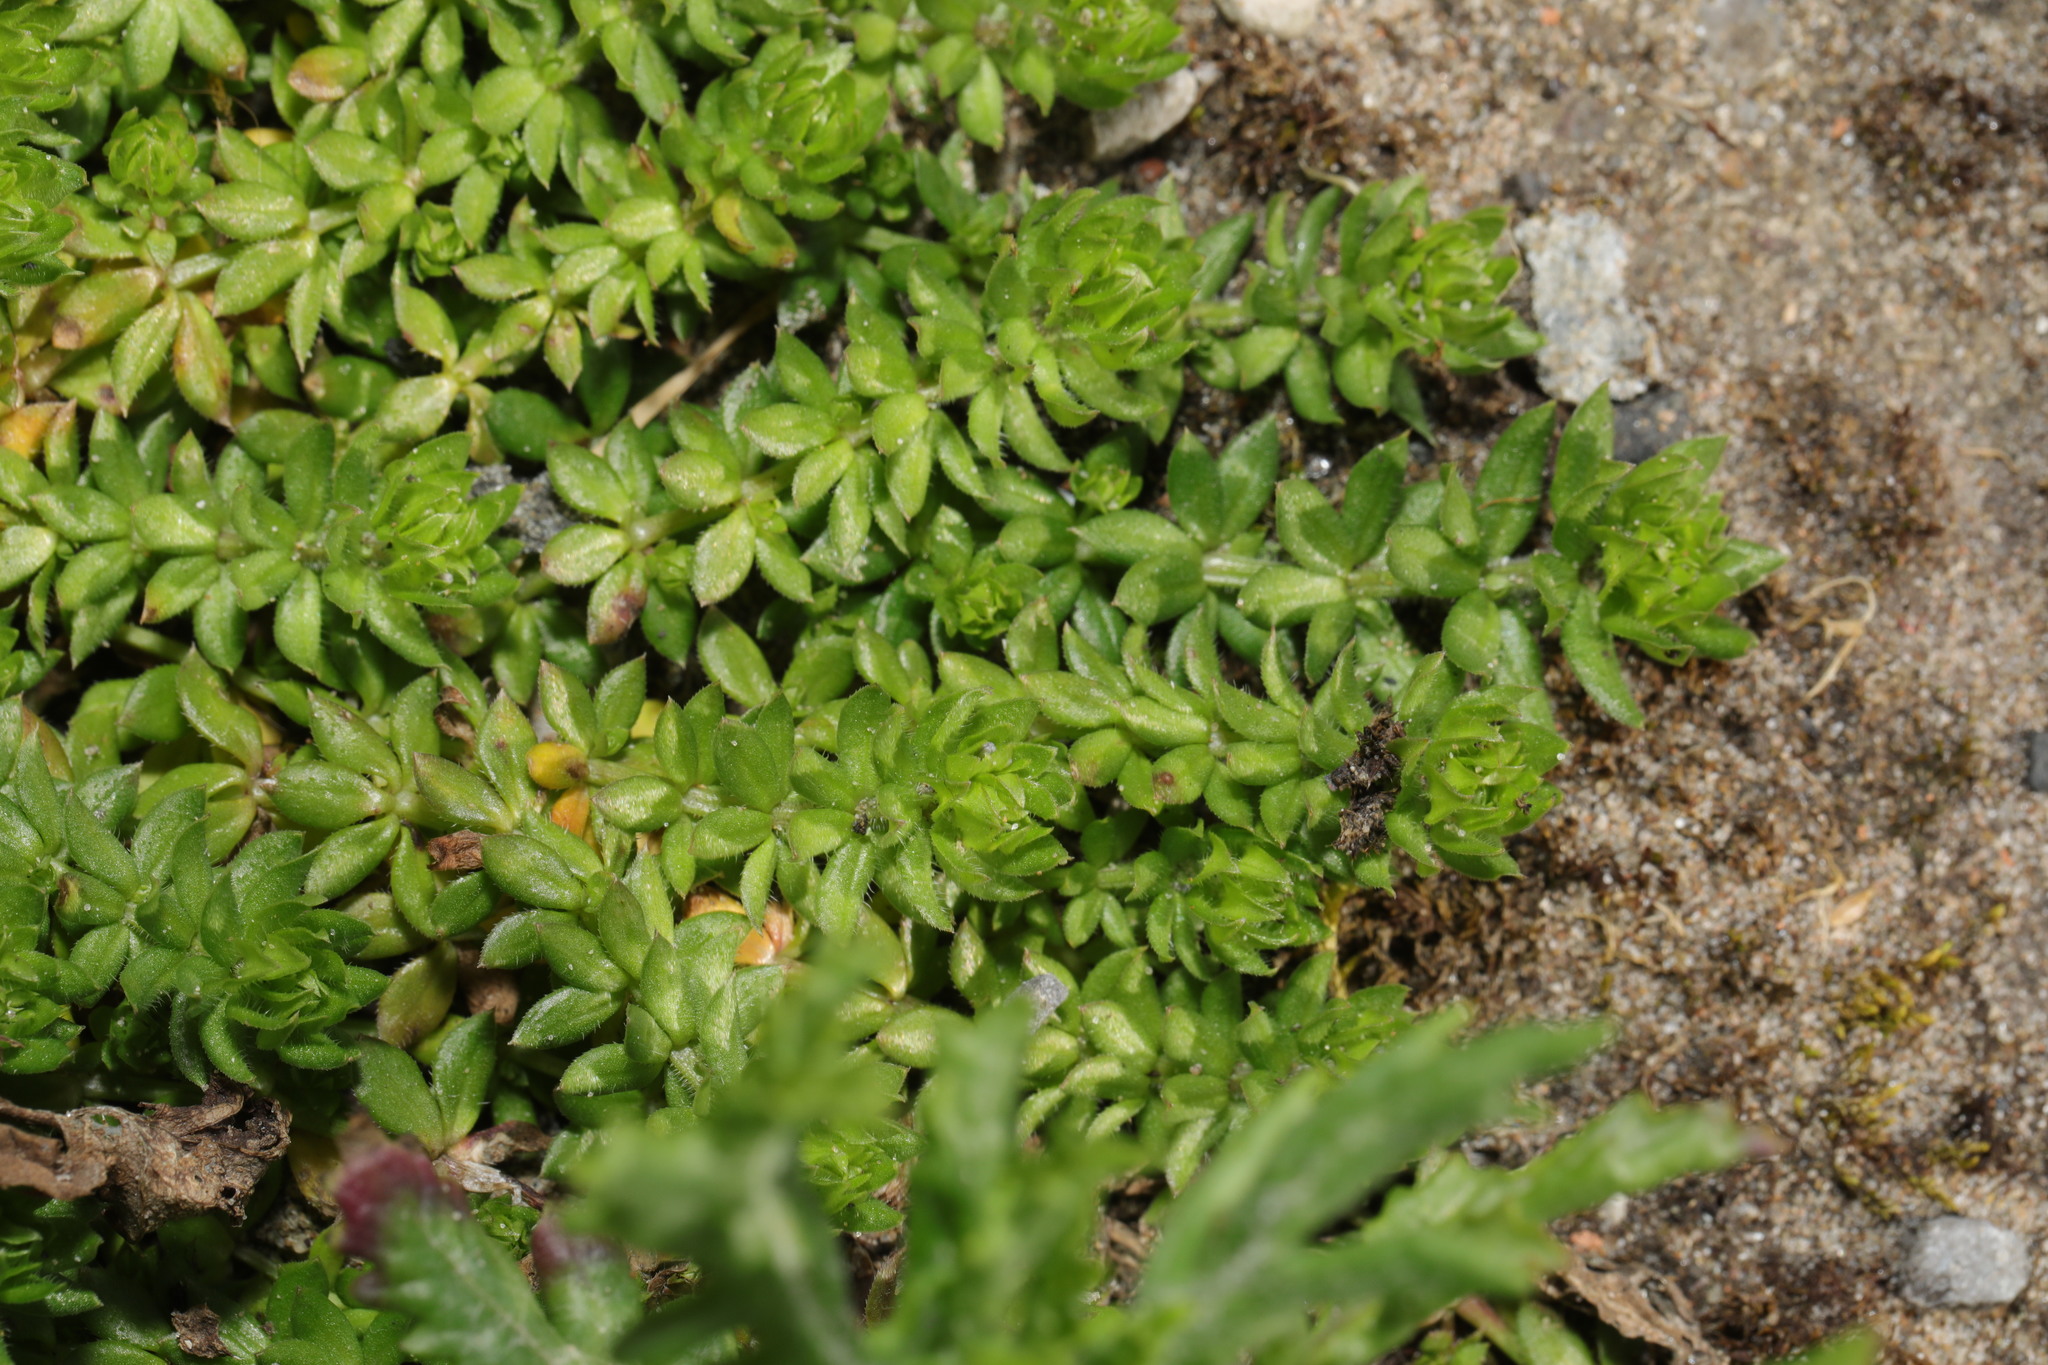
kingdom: Plantae
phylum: Tracheophyta
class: Magnoliopsida
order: Gentianales
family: Rubiaceae
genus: Galium
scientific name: Galium murale
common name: Yellow wall bedstraw
